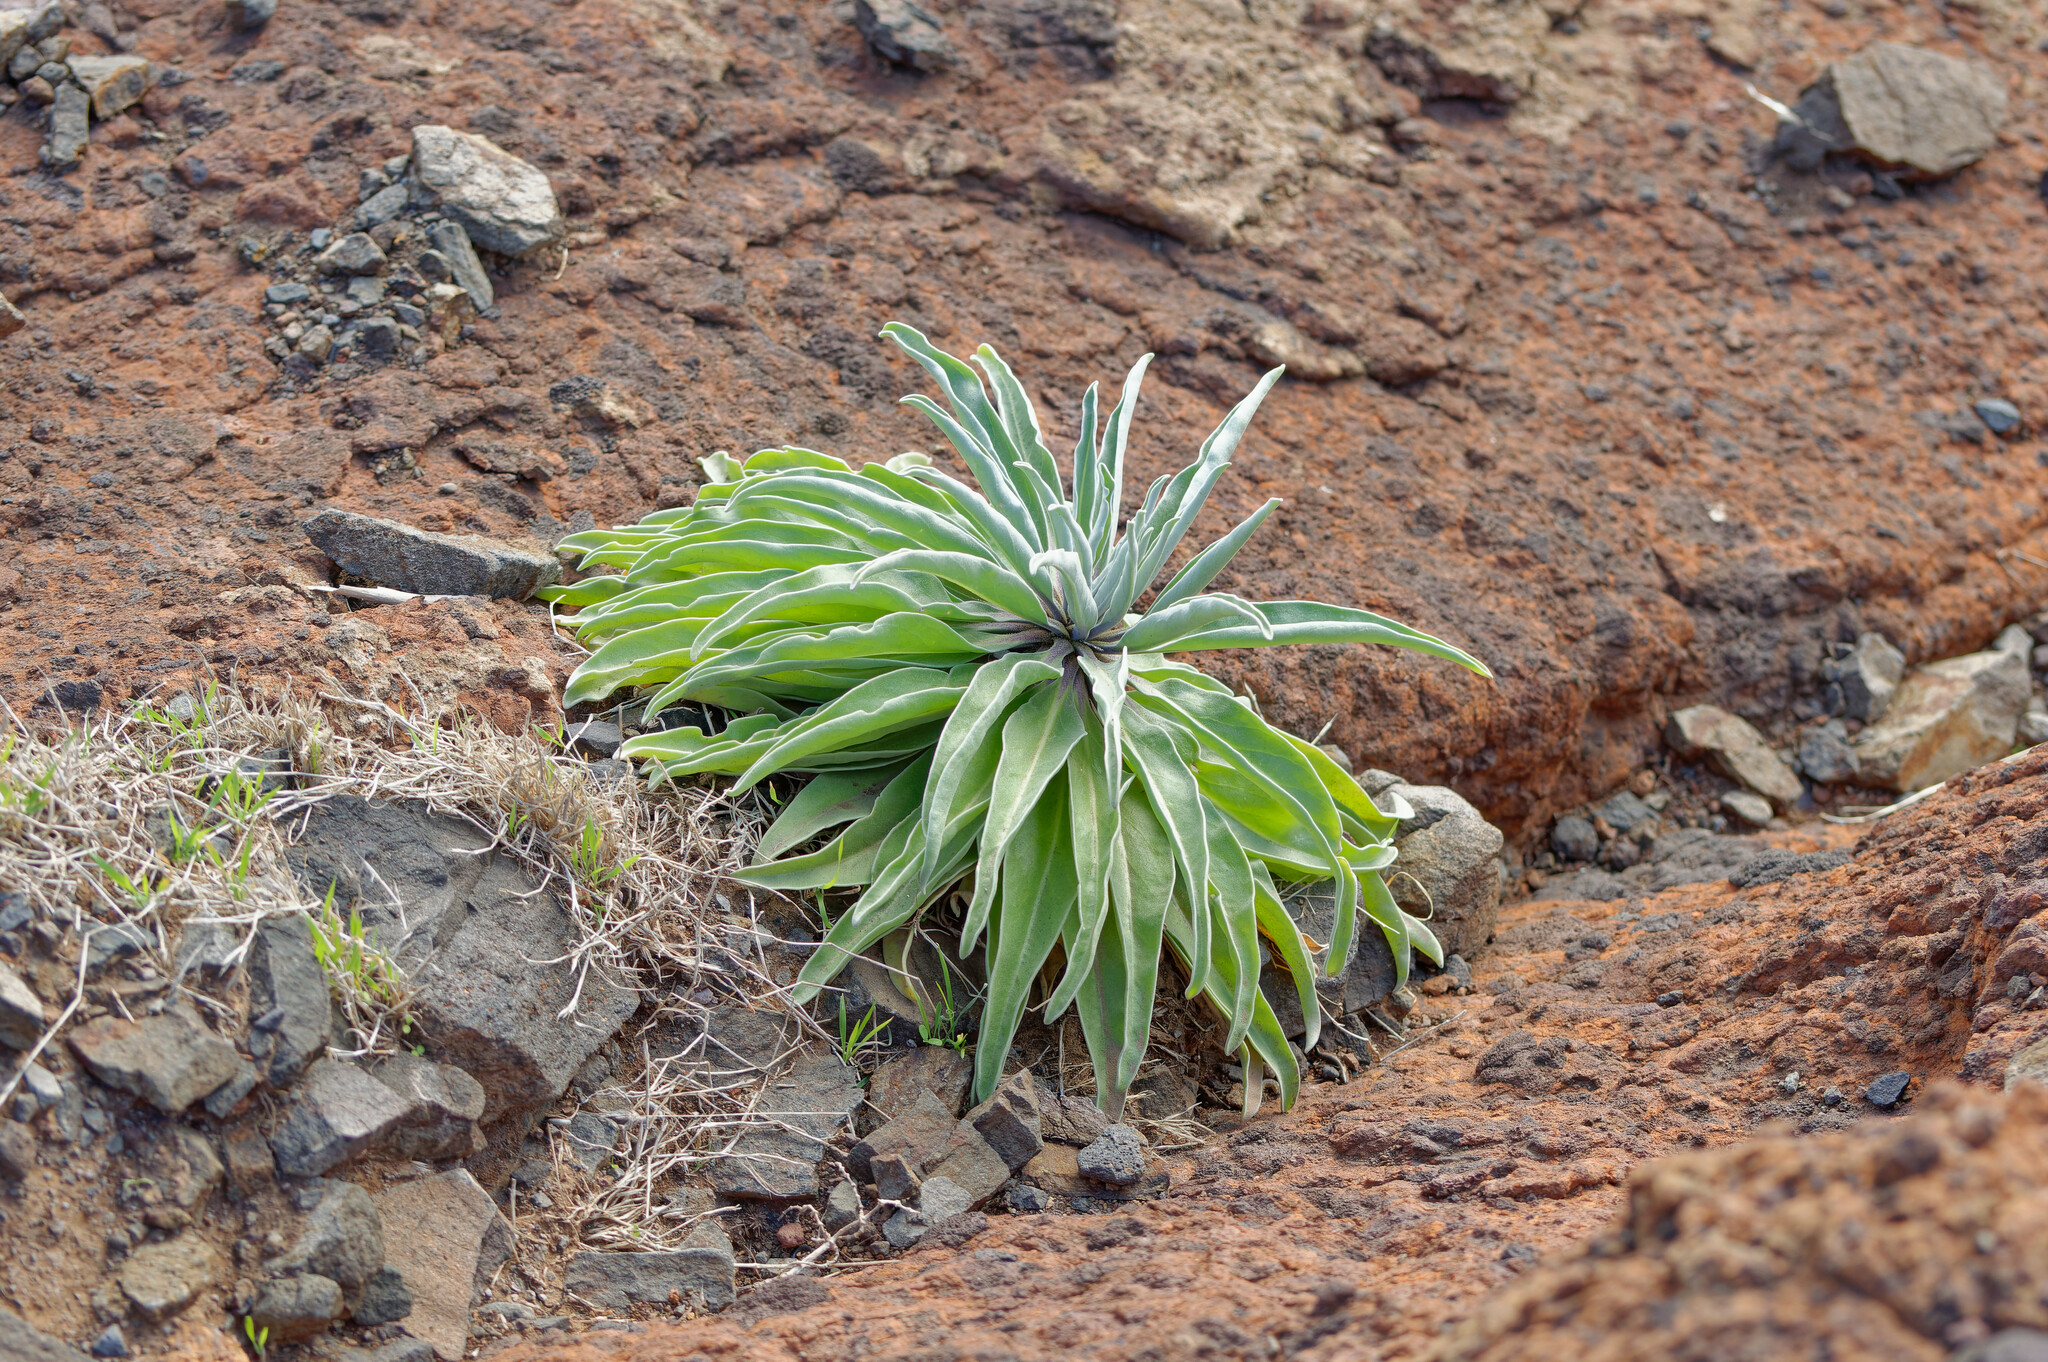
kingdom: Plantae
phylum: Tracheophyta
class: Magnoliopsida
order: Brassicales
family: Brassicaceae
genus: Matthiola
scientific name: Matthiola maderensis
